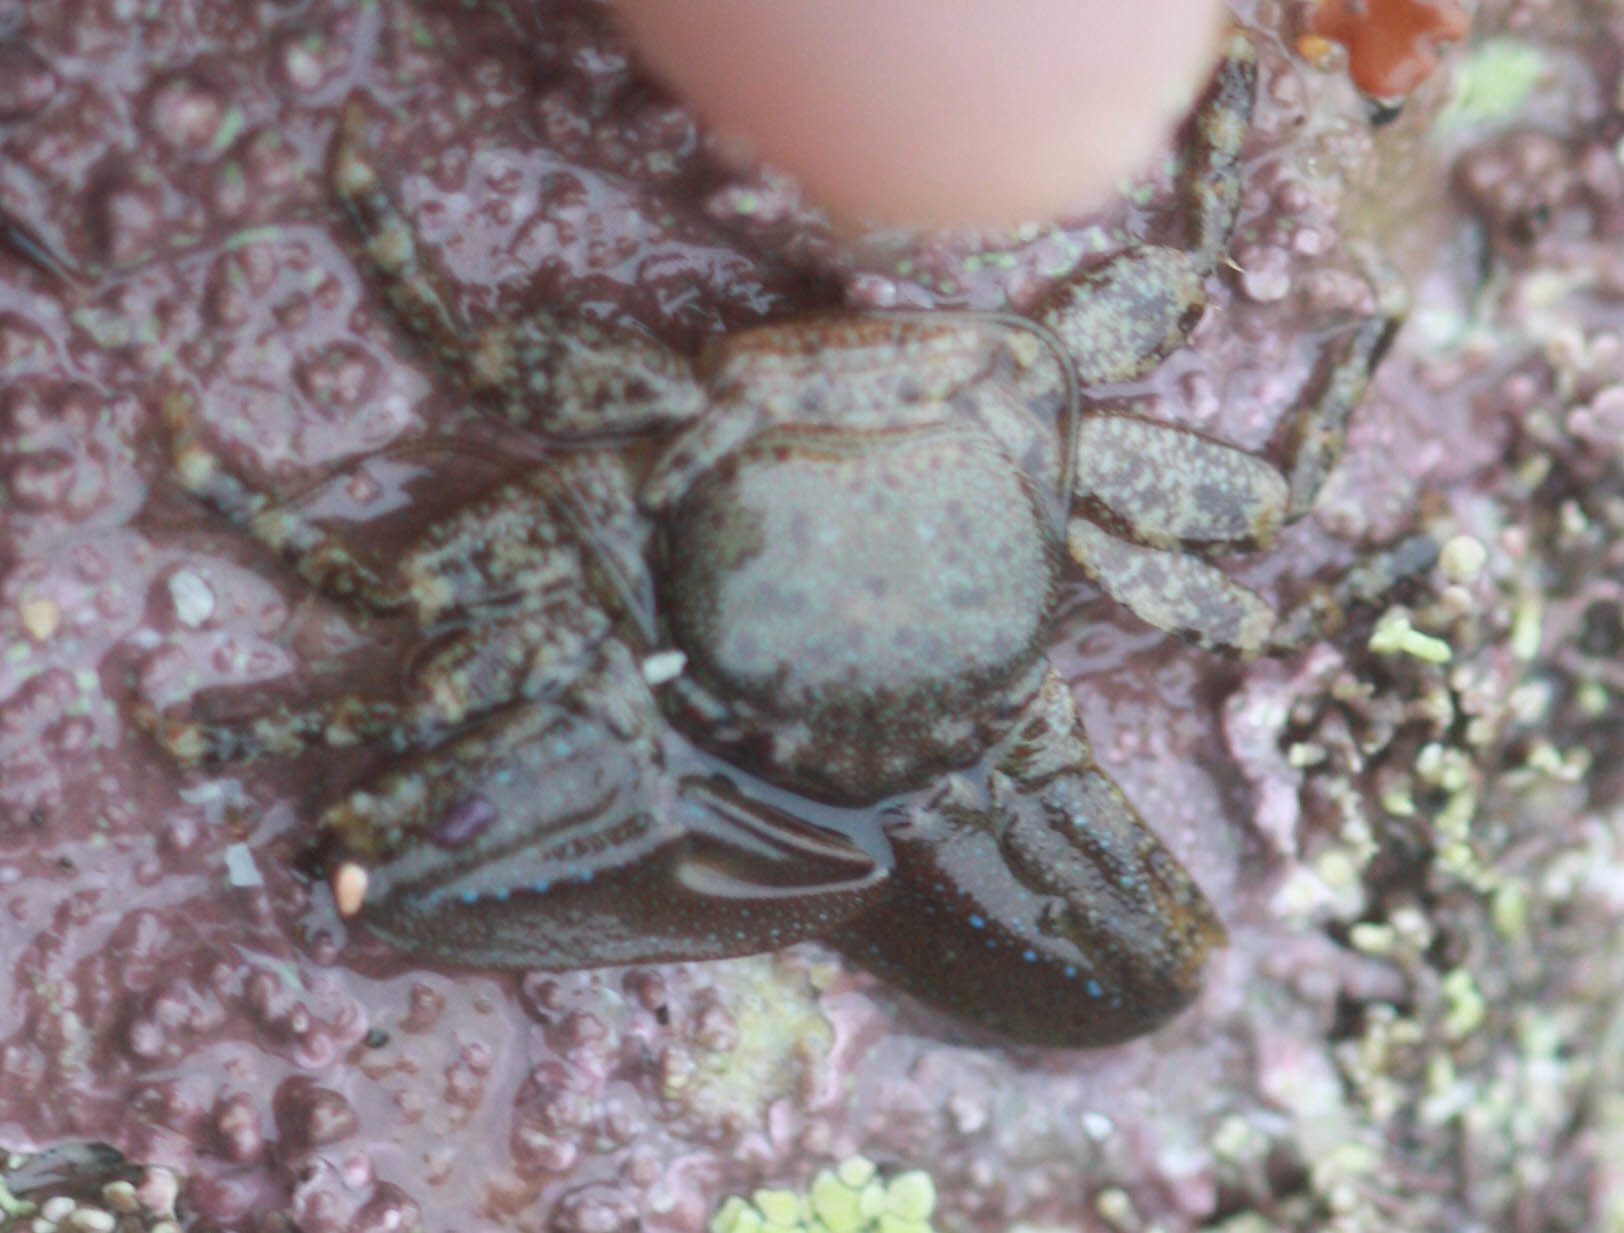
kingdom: Animalia
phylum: Arthropoda
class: Malacostraca
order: Decapoda
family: Porcellanidae
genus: Petrolisthes
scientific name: Petrolisthes manimaculis
